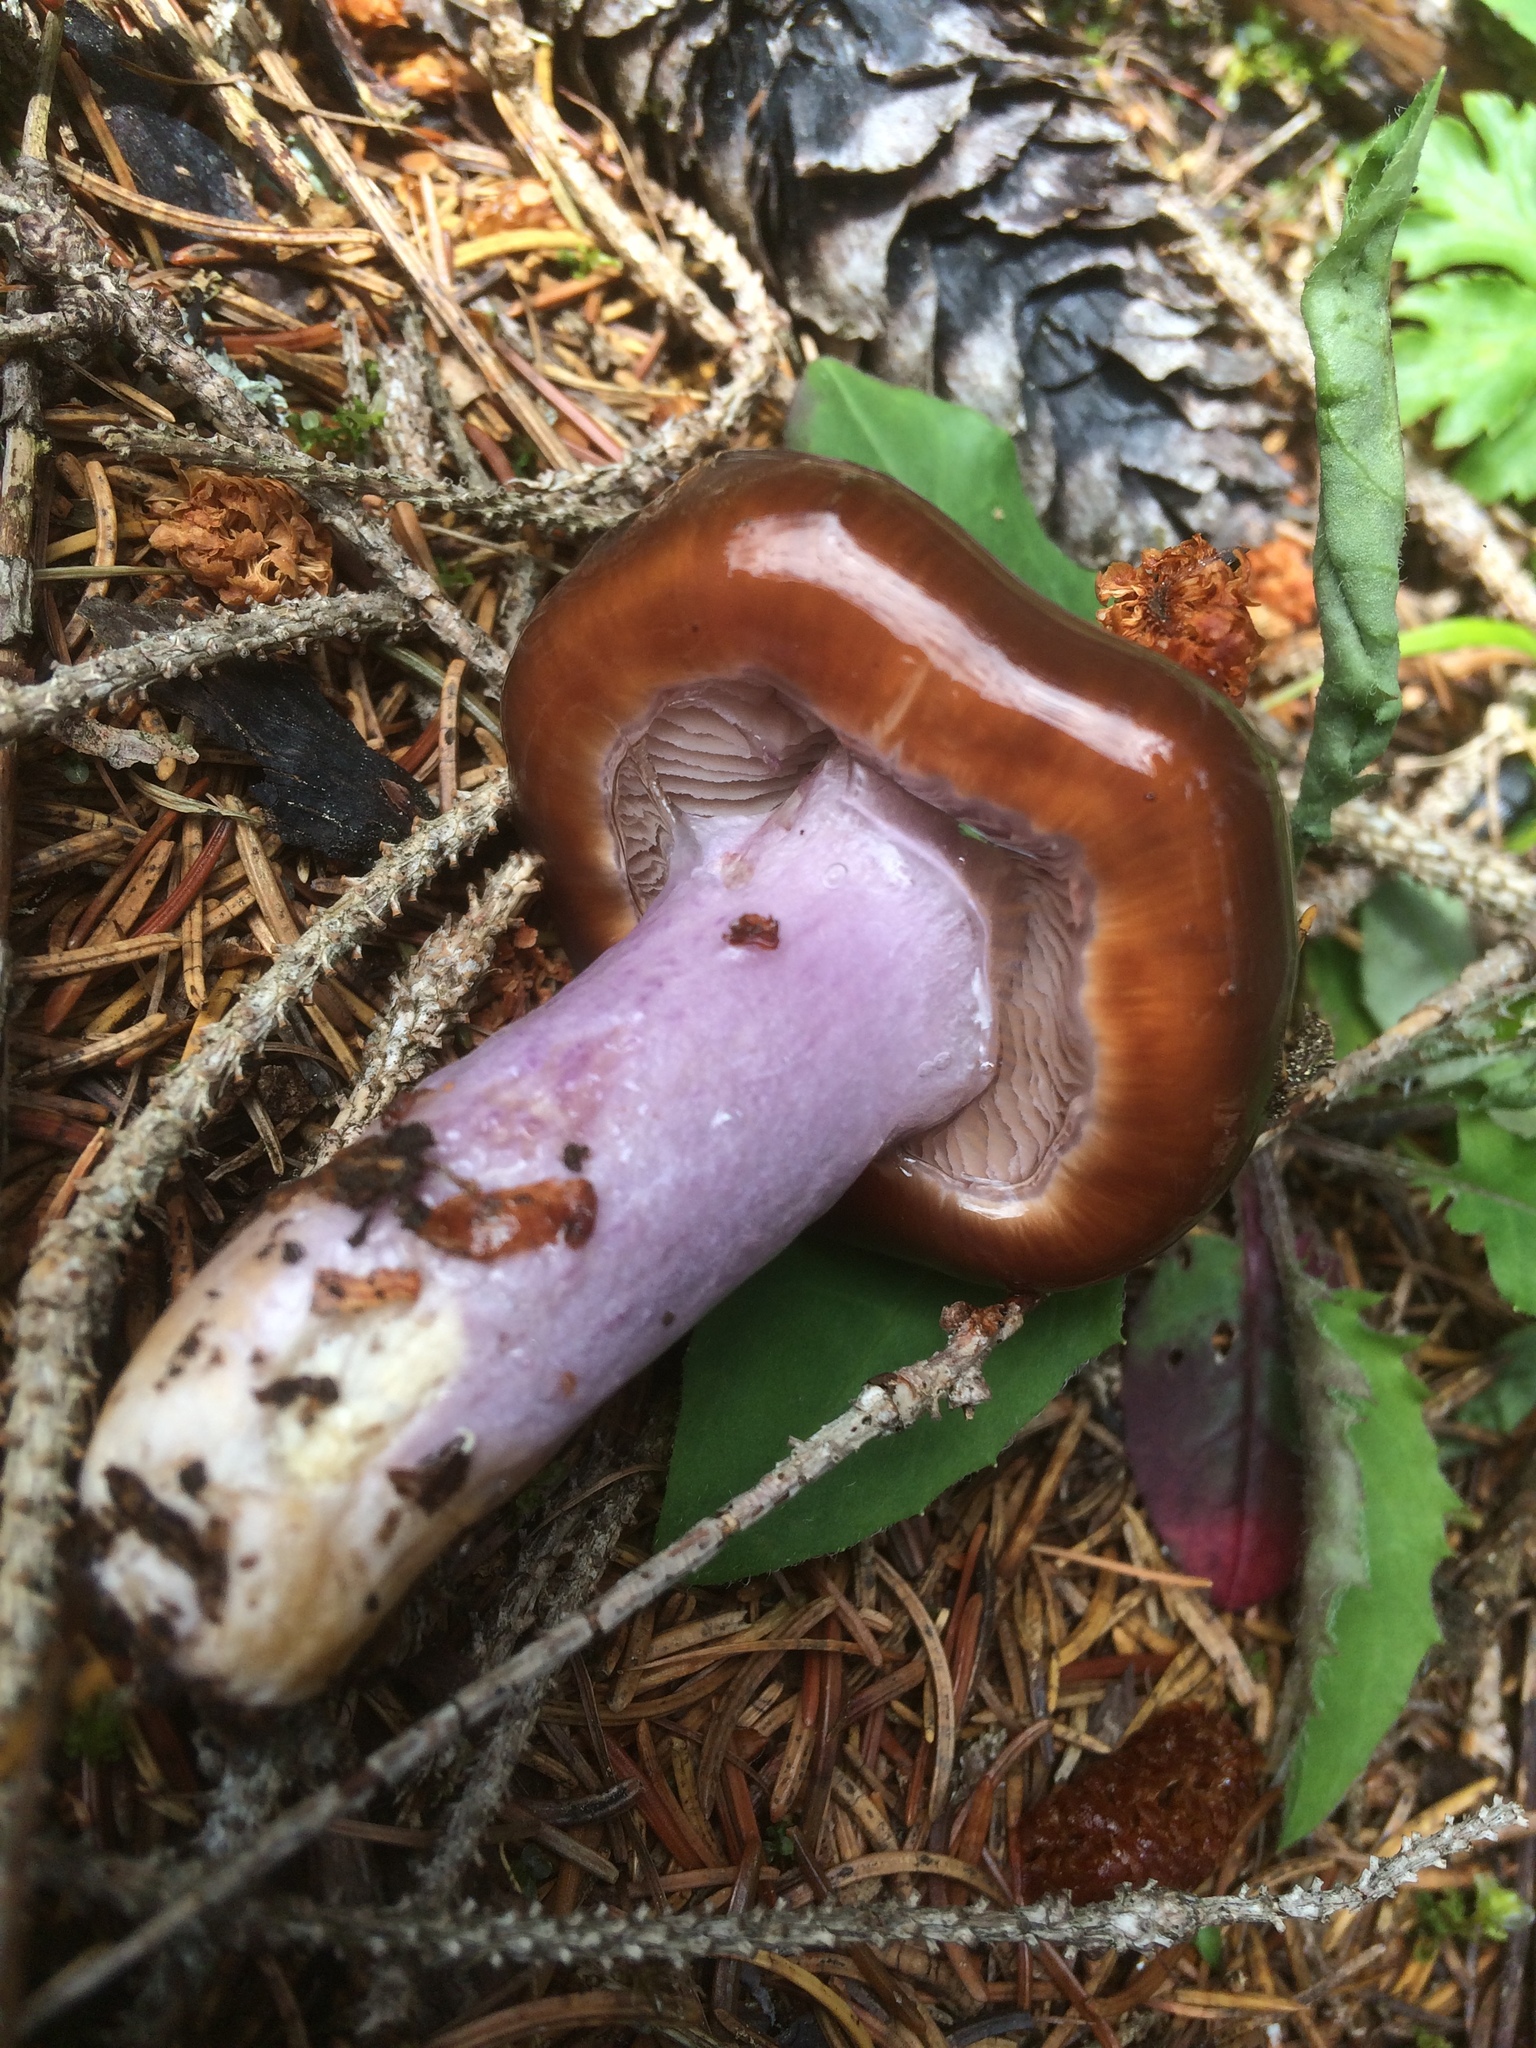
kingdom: Fungi
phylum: Basidiomycota
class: Agaricomycetes
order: Agaricales
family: Cortinariaceae
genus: Cortinarius
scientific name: Cortinarius collinitus
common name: Blue-girdled webcap
